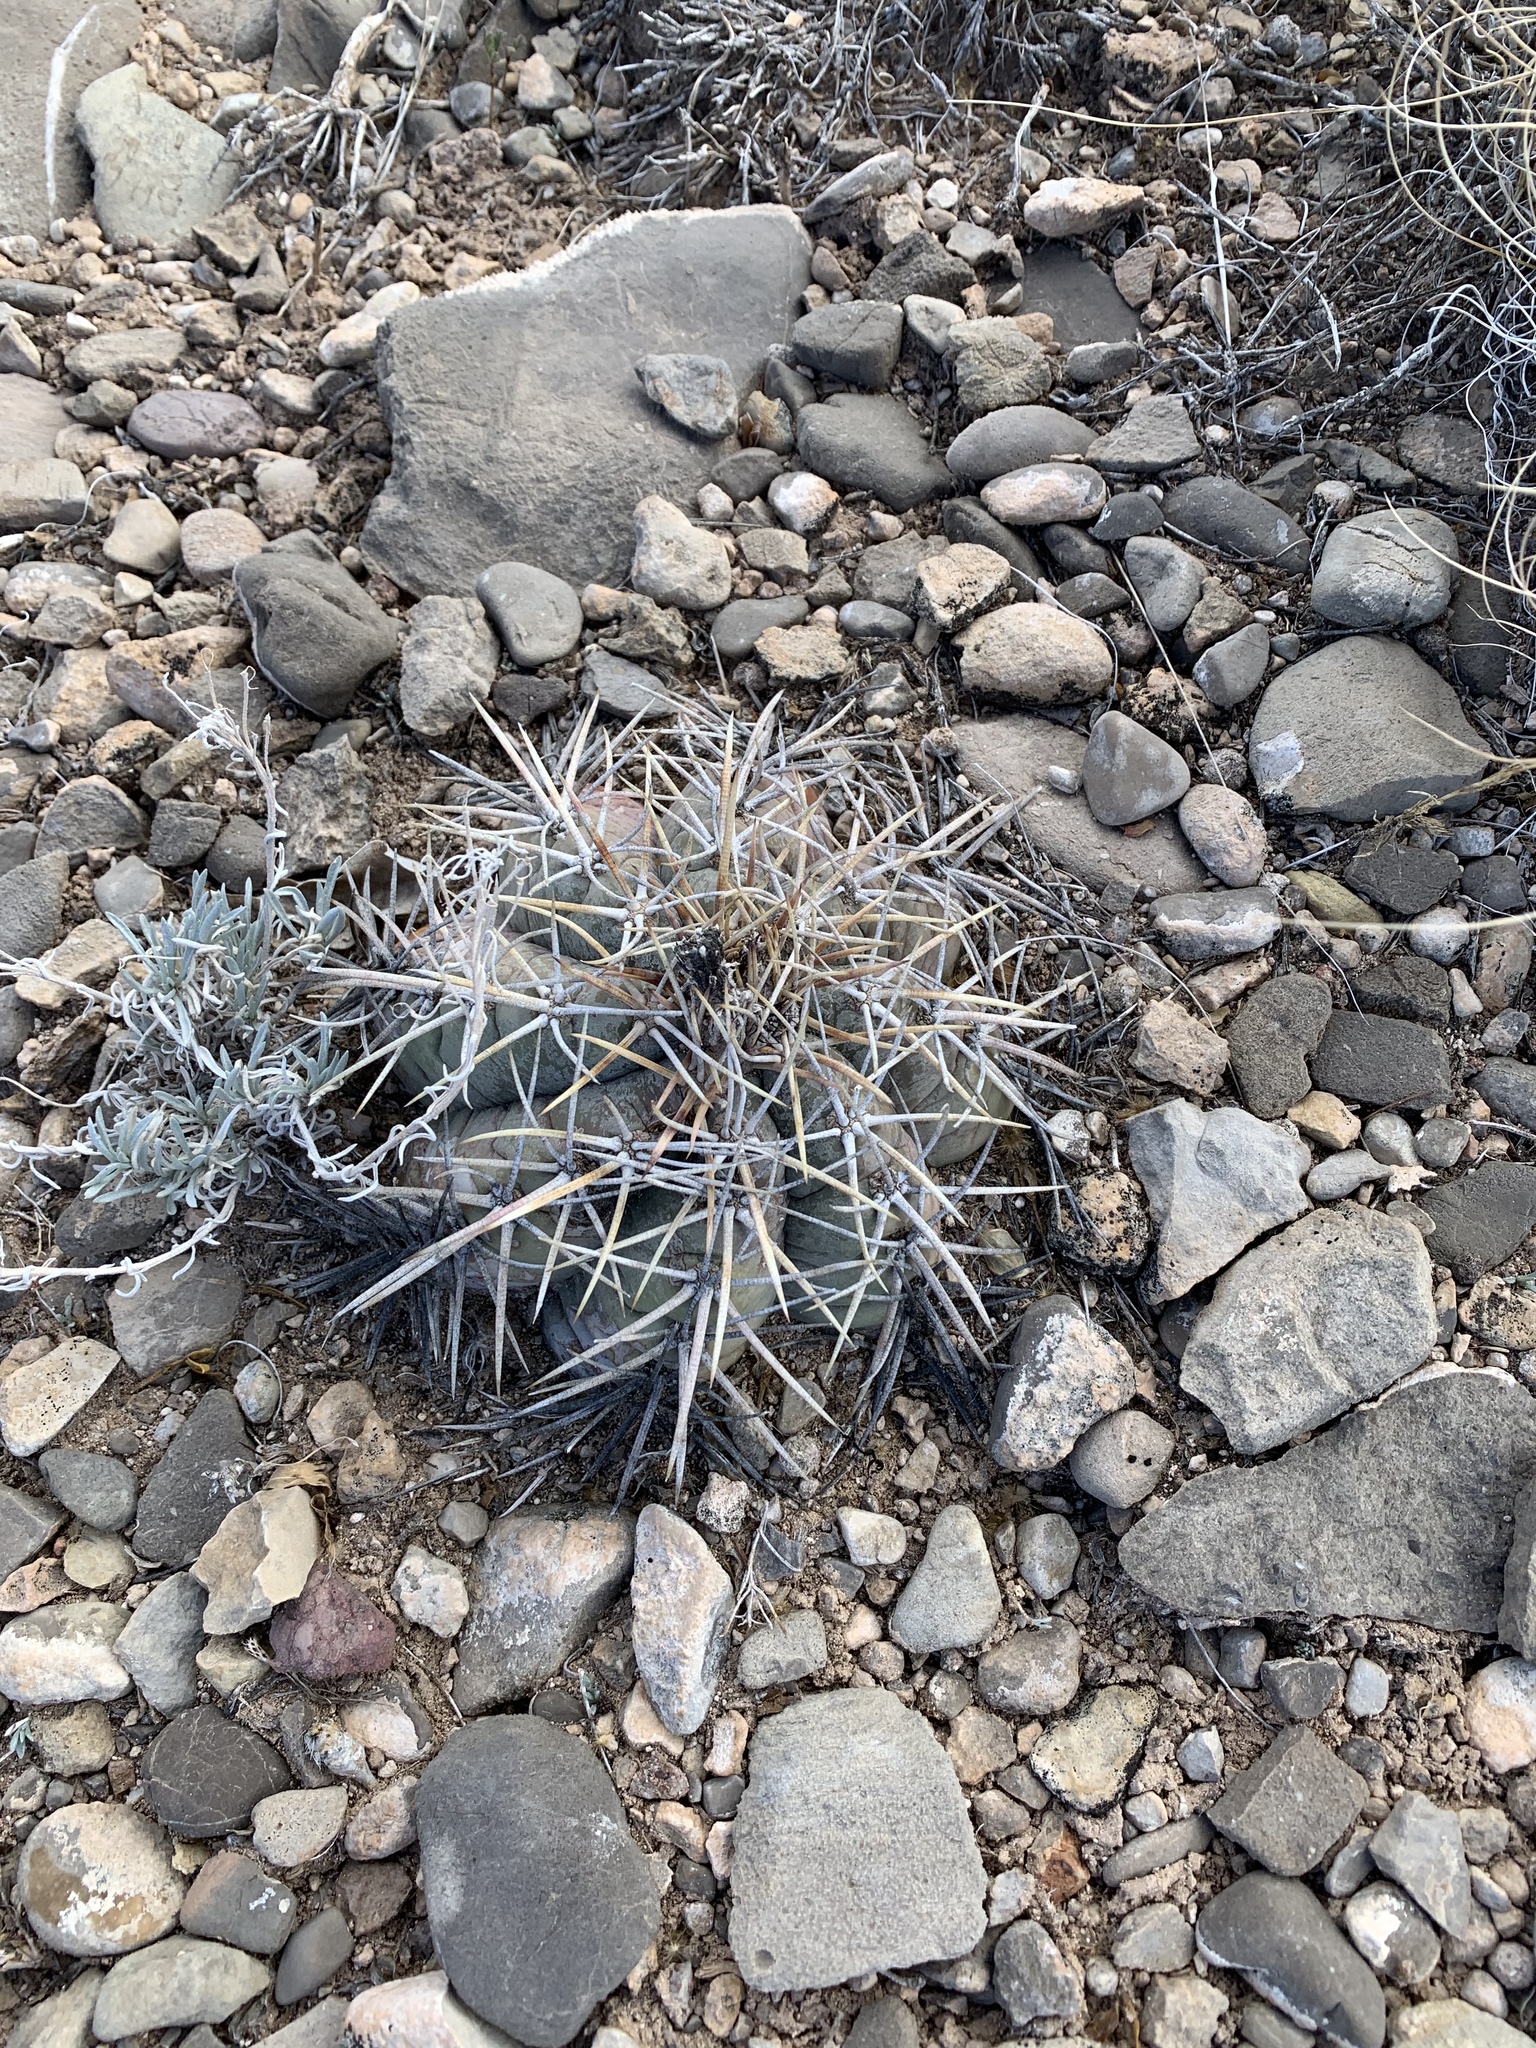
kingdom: Plantae
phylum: Tracheophyta
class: Magnoliopsida
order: Caryophyllales
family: Cactaceae
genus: Echinocactus
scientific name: Echinocactus horizonthalonius
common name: Devilshead
